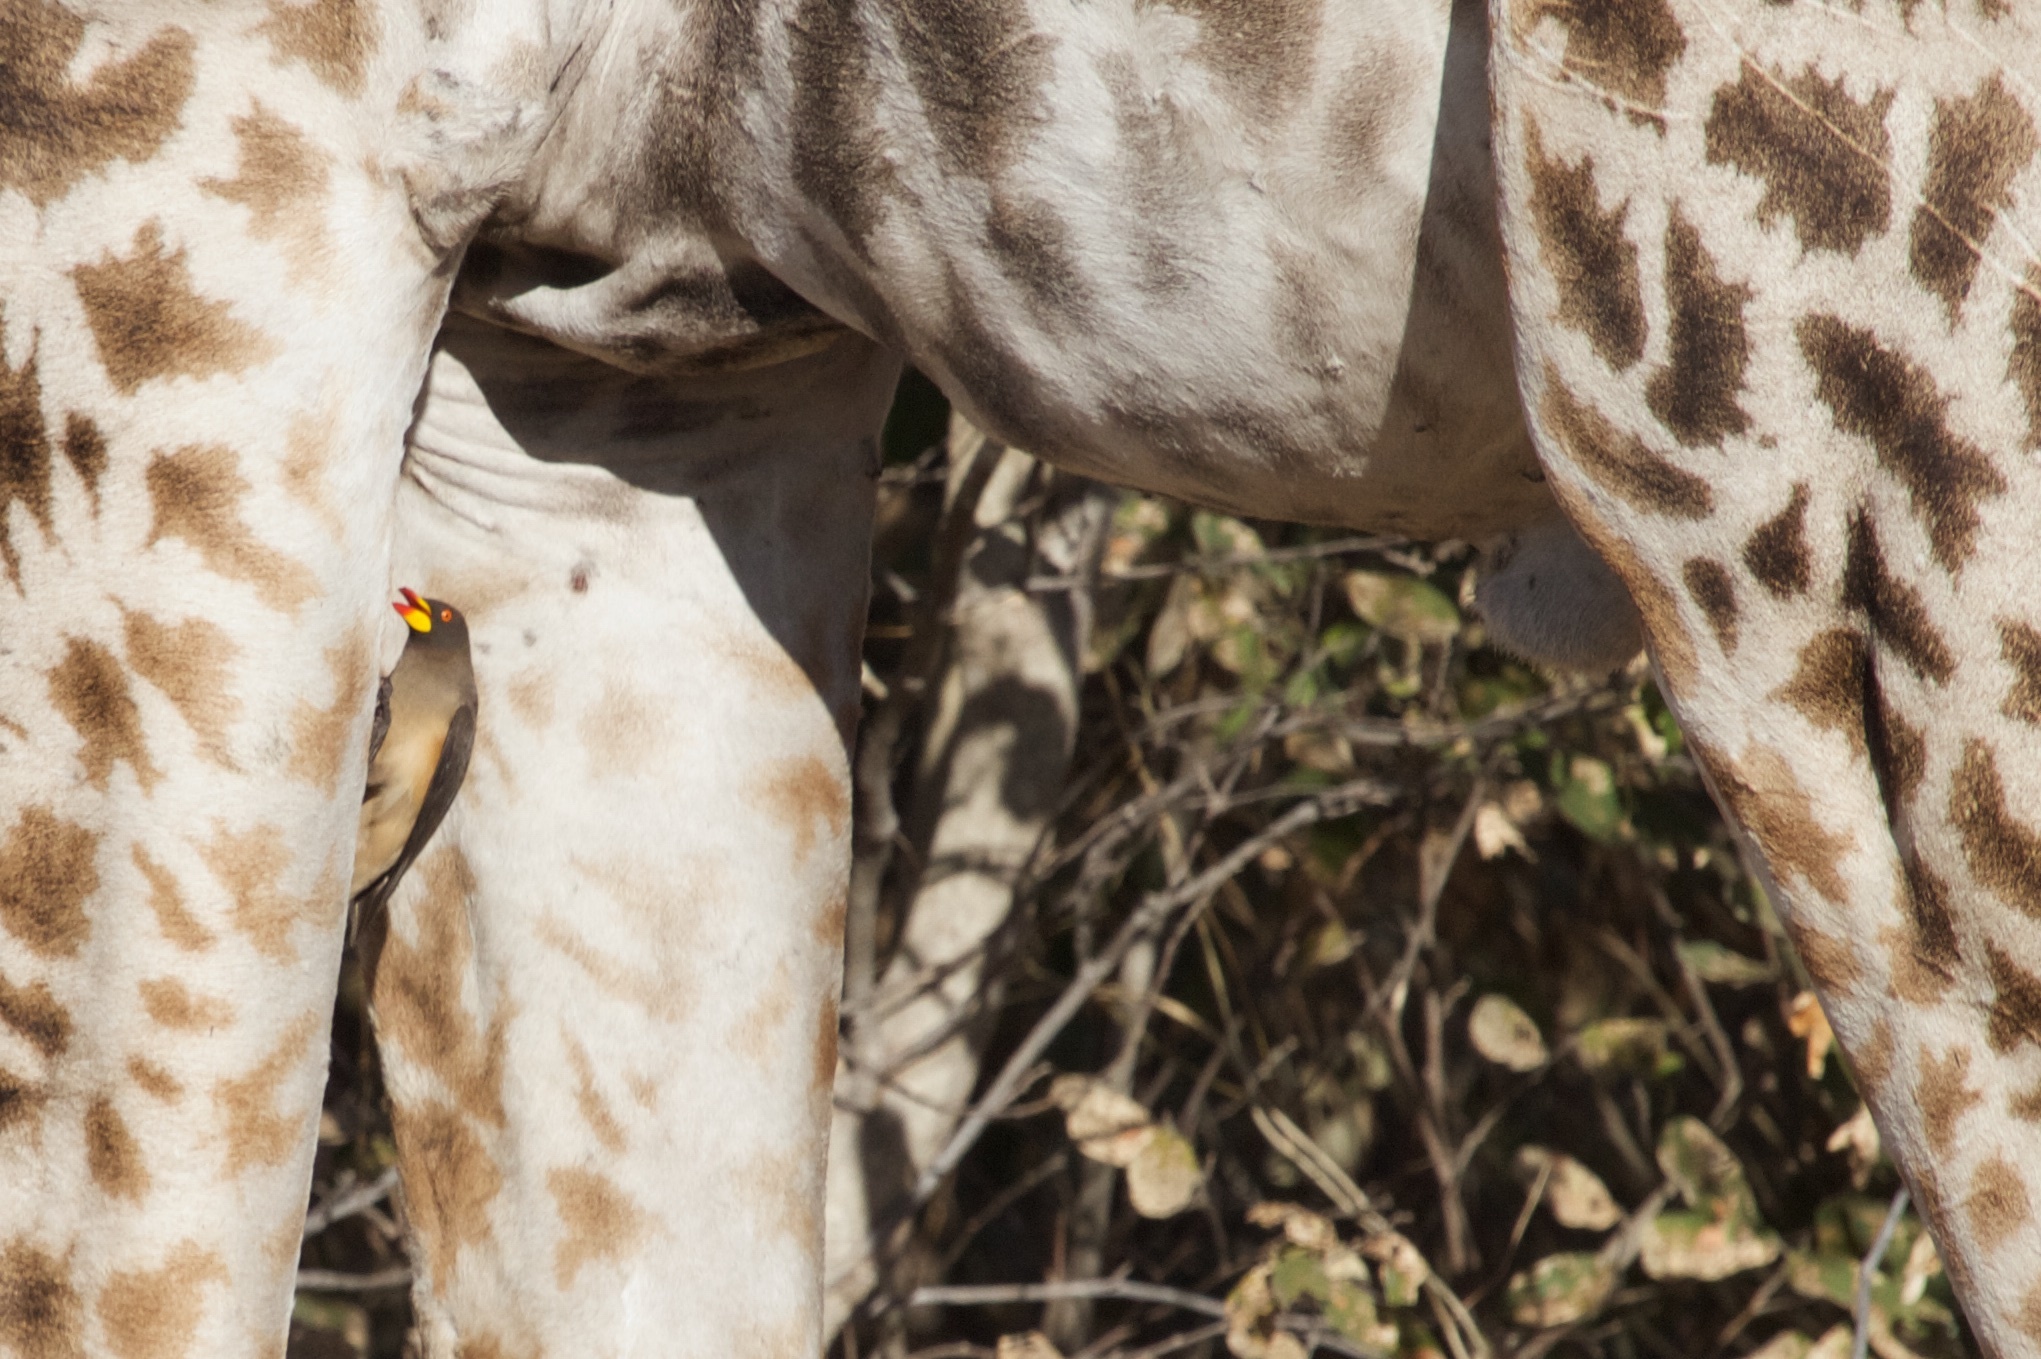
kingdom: Animalia
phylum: Chordata
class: Aves
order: Passeriformes
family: Buphagidae
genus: Buphagus
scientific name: Buphagus africanus
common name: Yellow-billed oxpecker
